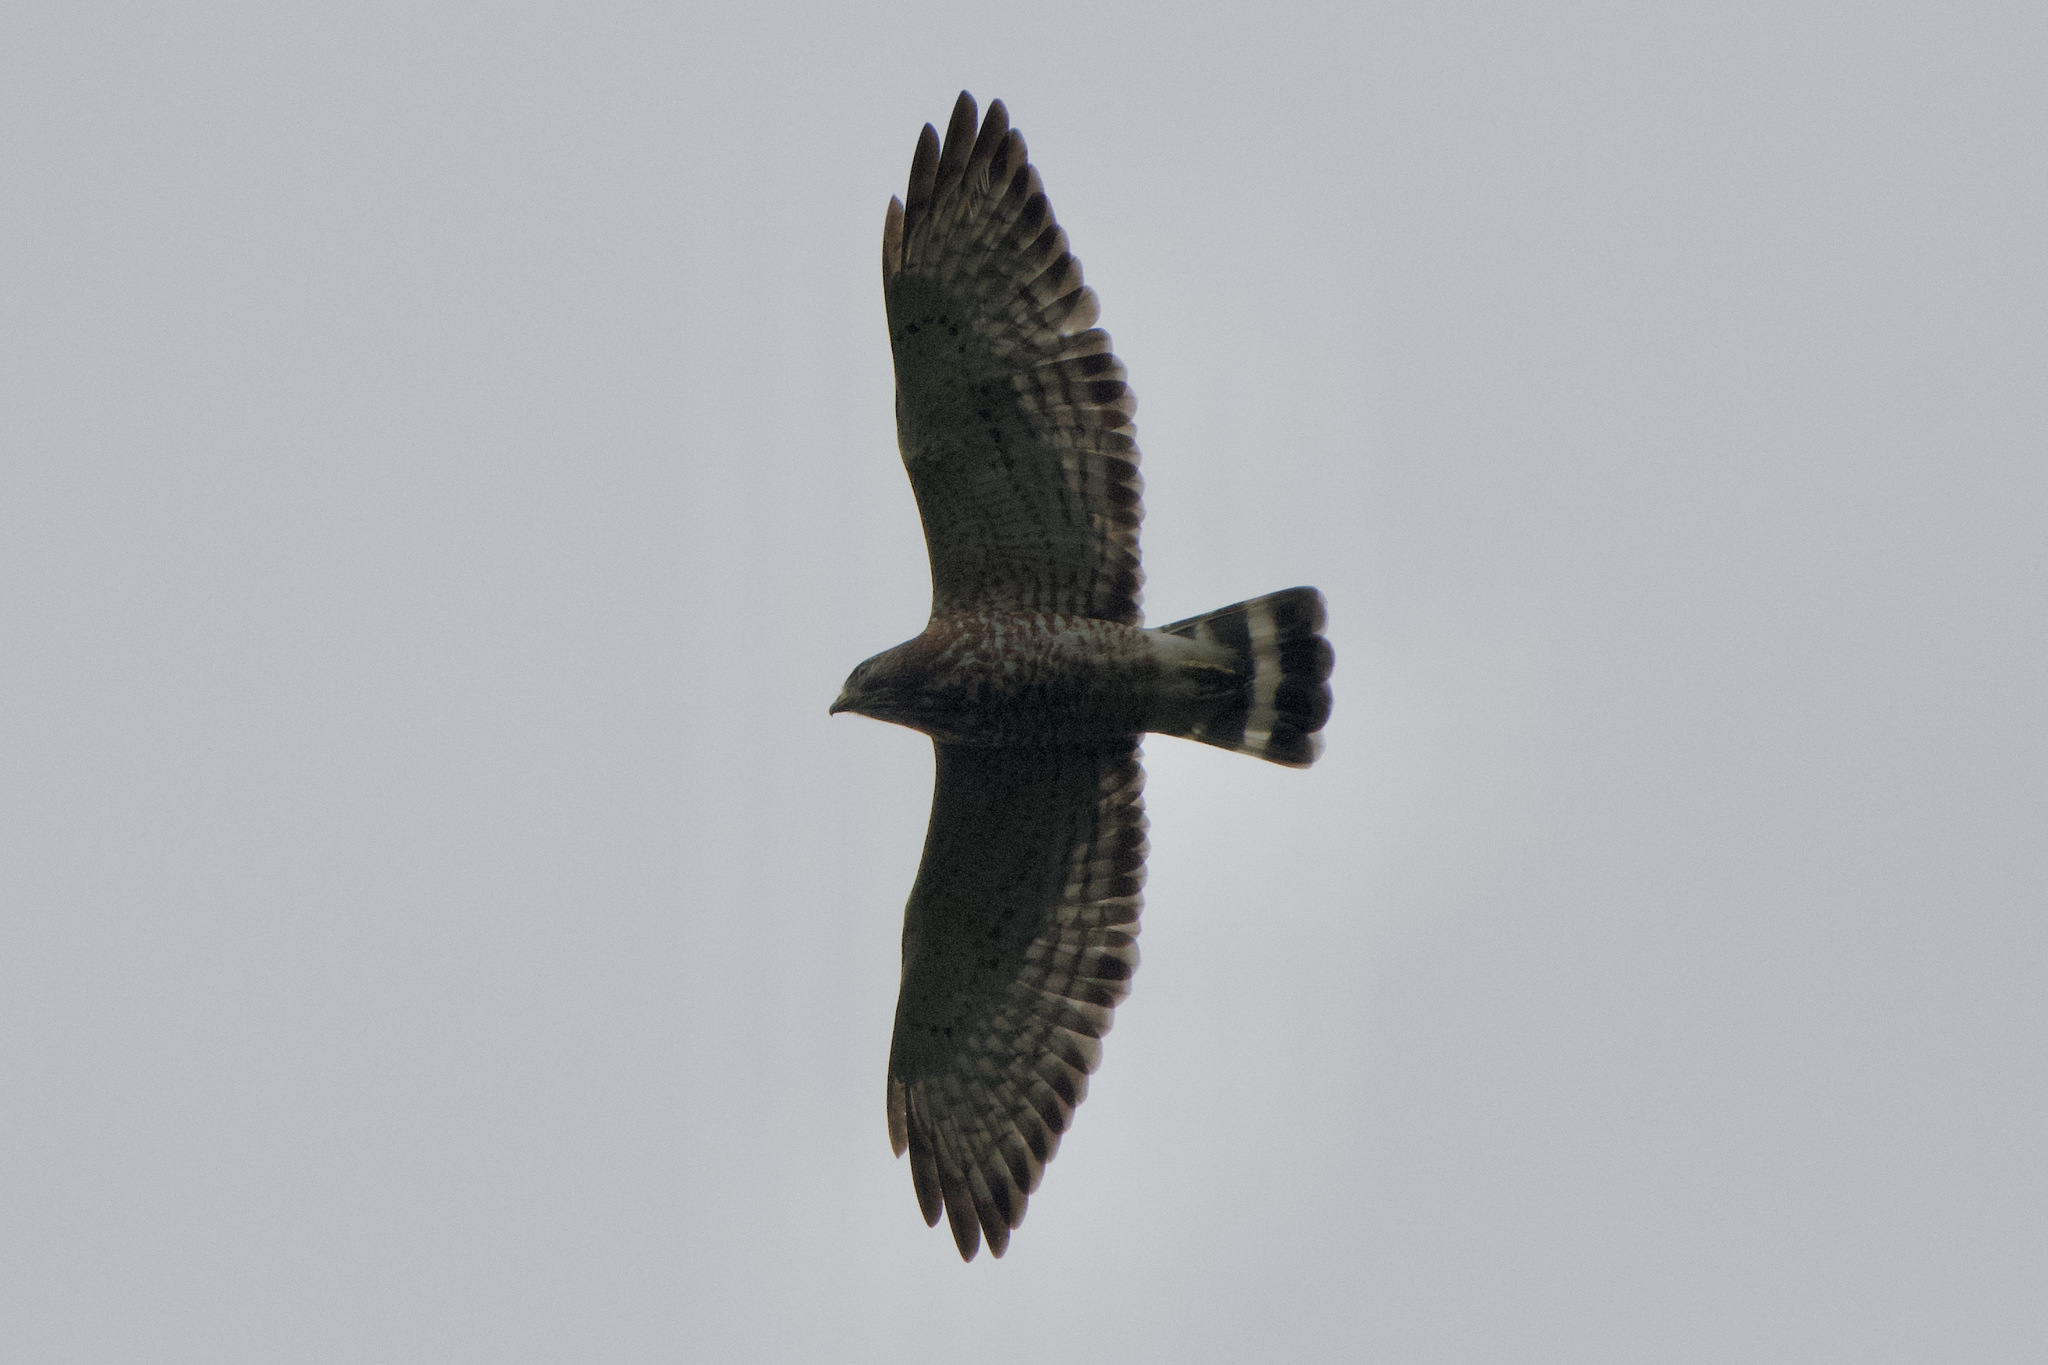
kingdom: Animalia
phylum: Chordata
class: Aves
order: Accipitriformes
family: Accipitridae
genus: Buteo
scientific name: Buteo platypterus
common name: Broad-winged hawk
